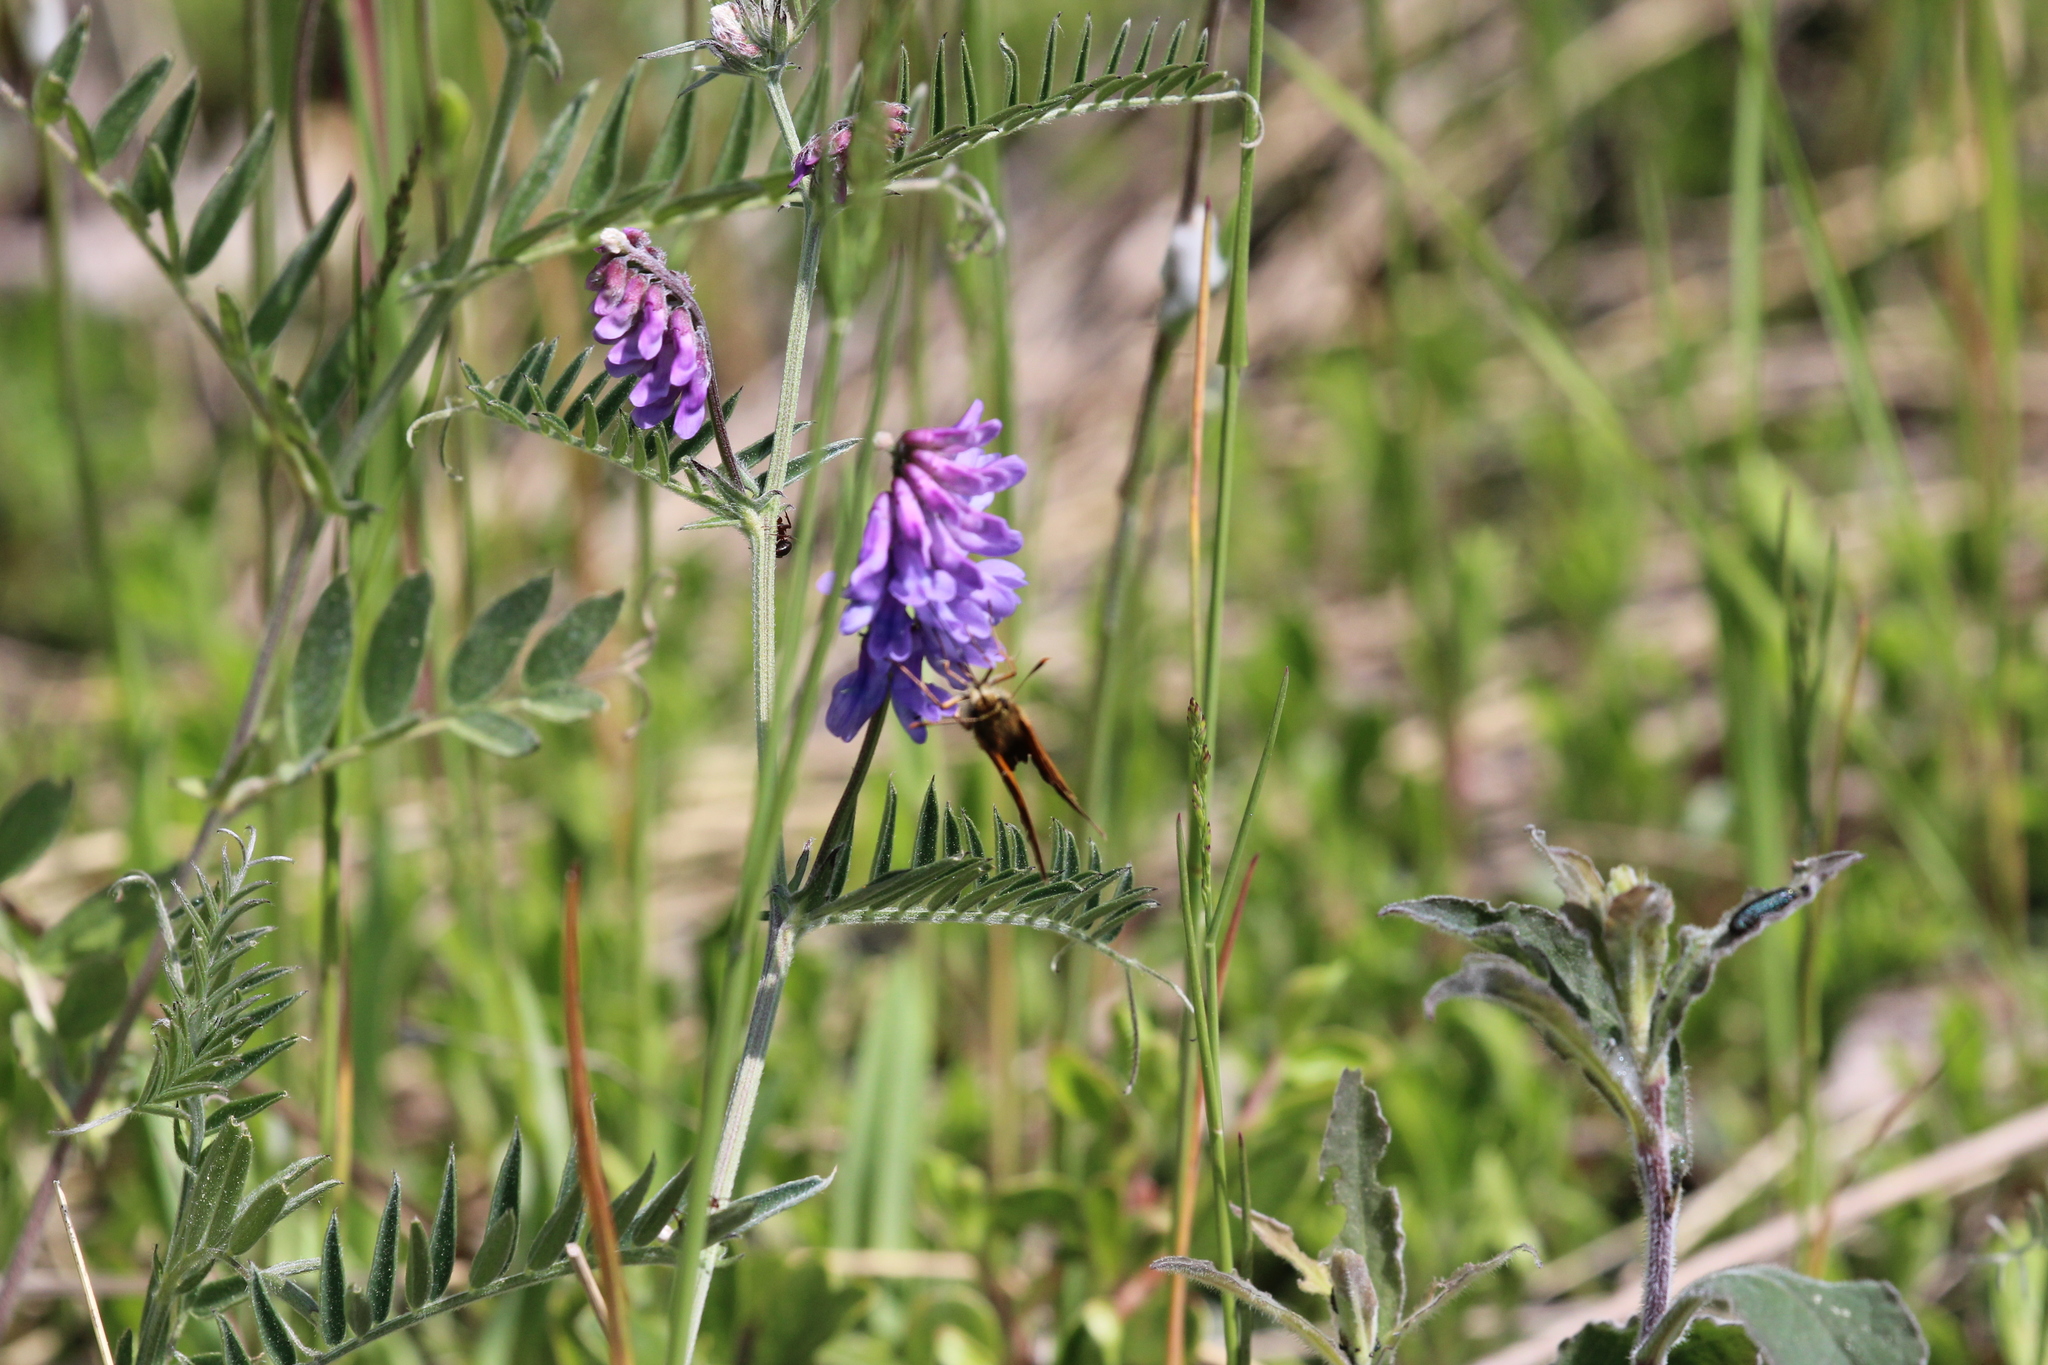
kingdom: Plantae
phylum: Tracheophyta
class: Magnoliopsida
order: Fabales
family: Fabaceae
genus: Vicia
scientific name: Vicia cracca
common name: Bird vetch
